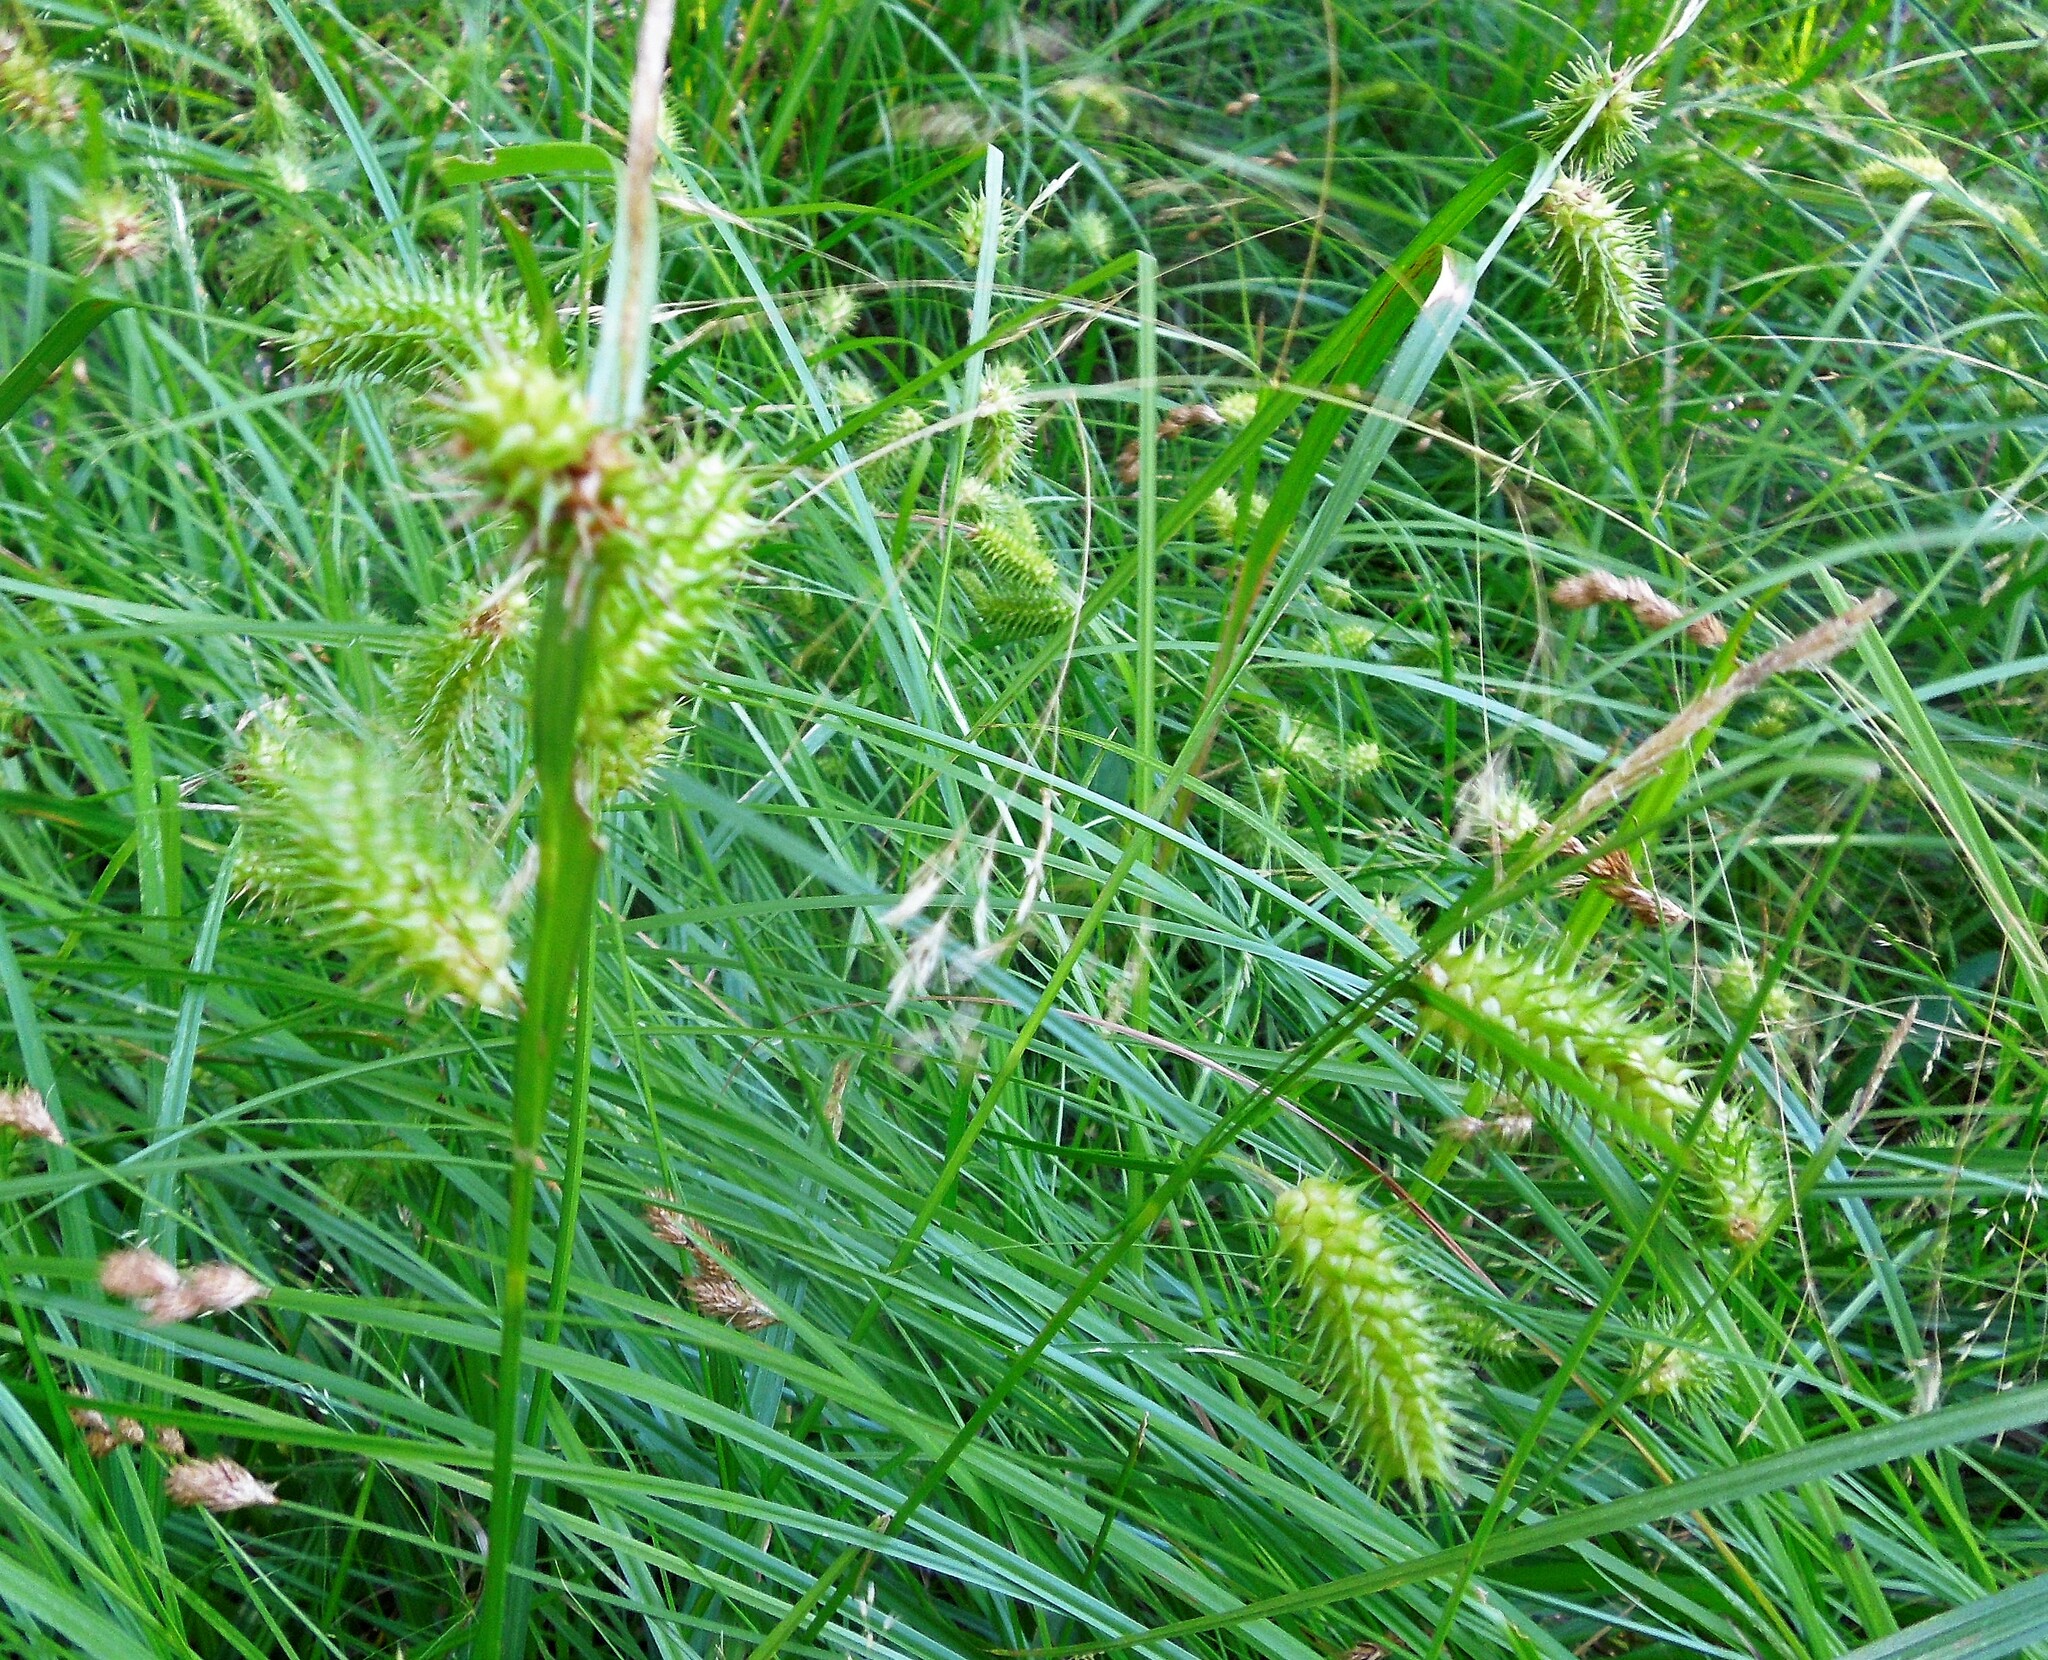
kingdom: Plantae
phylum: Tracheophyta
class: Liliopsida
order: Poales
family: Cyperaceae
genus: Carex
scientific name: Carex lurida
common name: Sallow sedge
